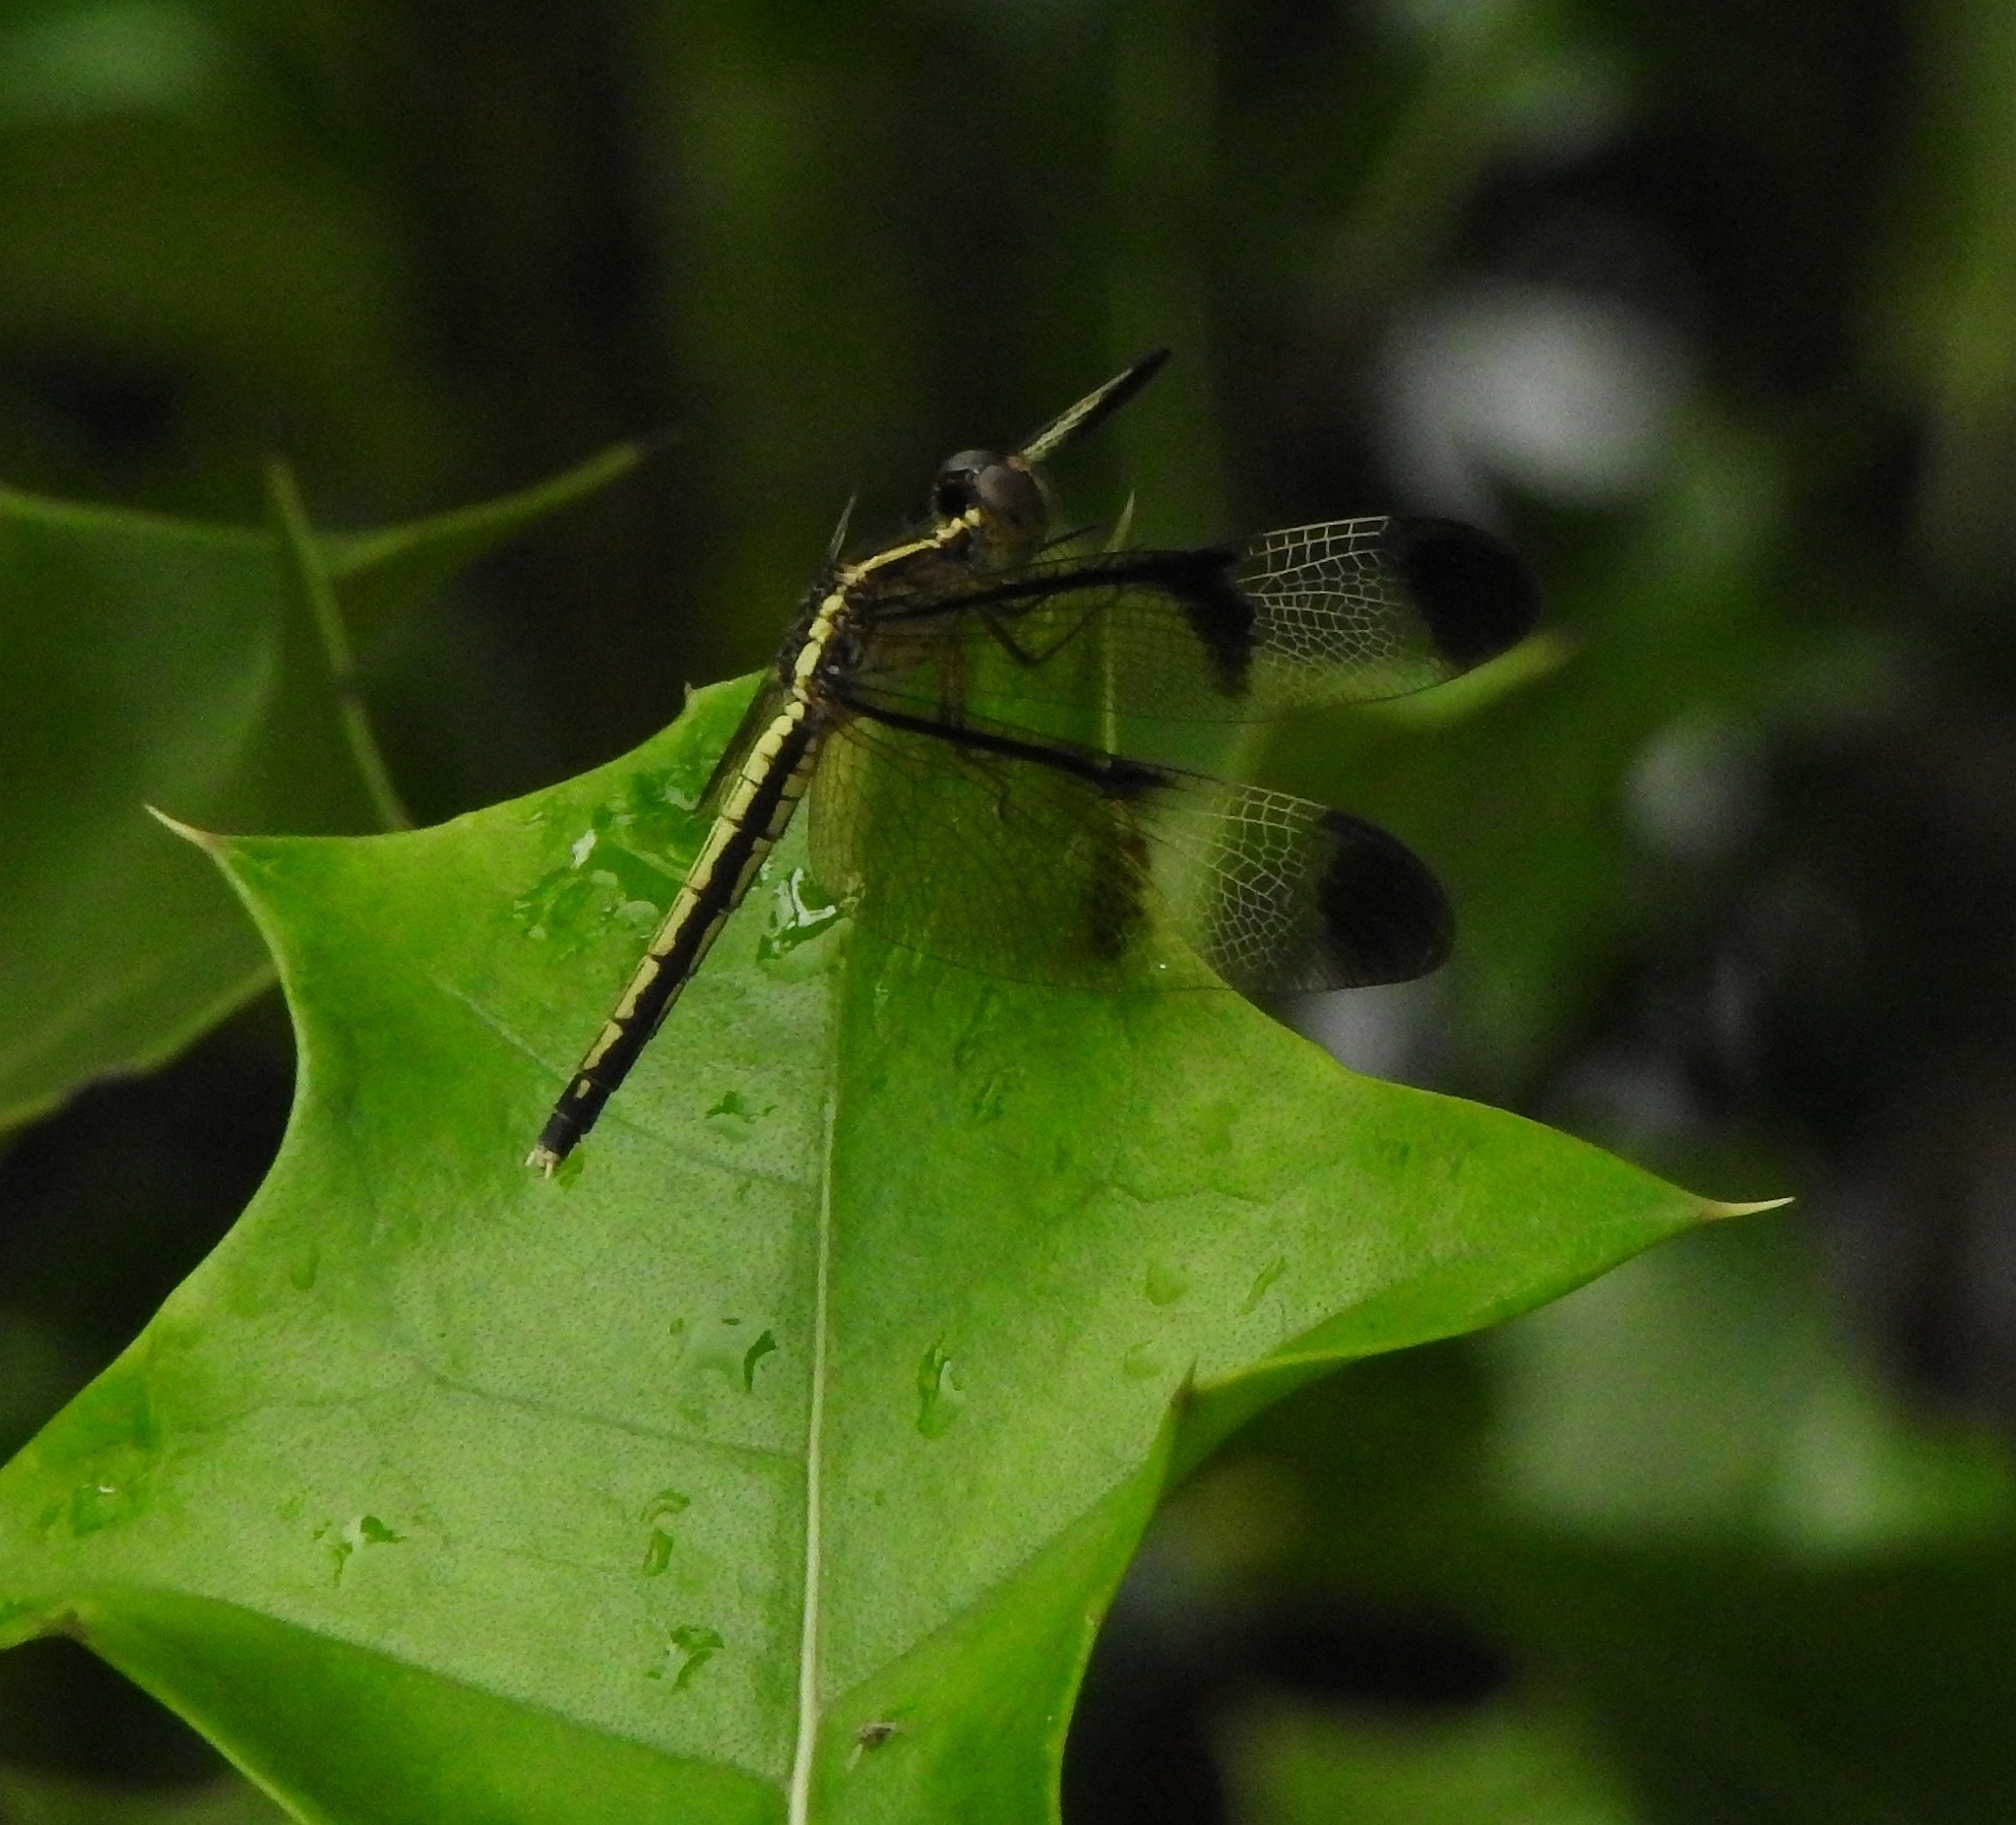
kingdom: Animalia
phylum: Arthropoda
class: Insecta
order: Odonata
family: Libellulidae
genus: Neurothemis
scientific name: Neurothemis tullia
